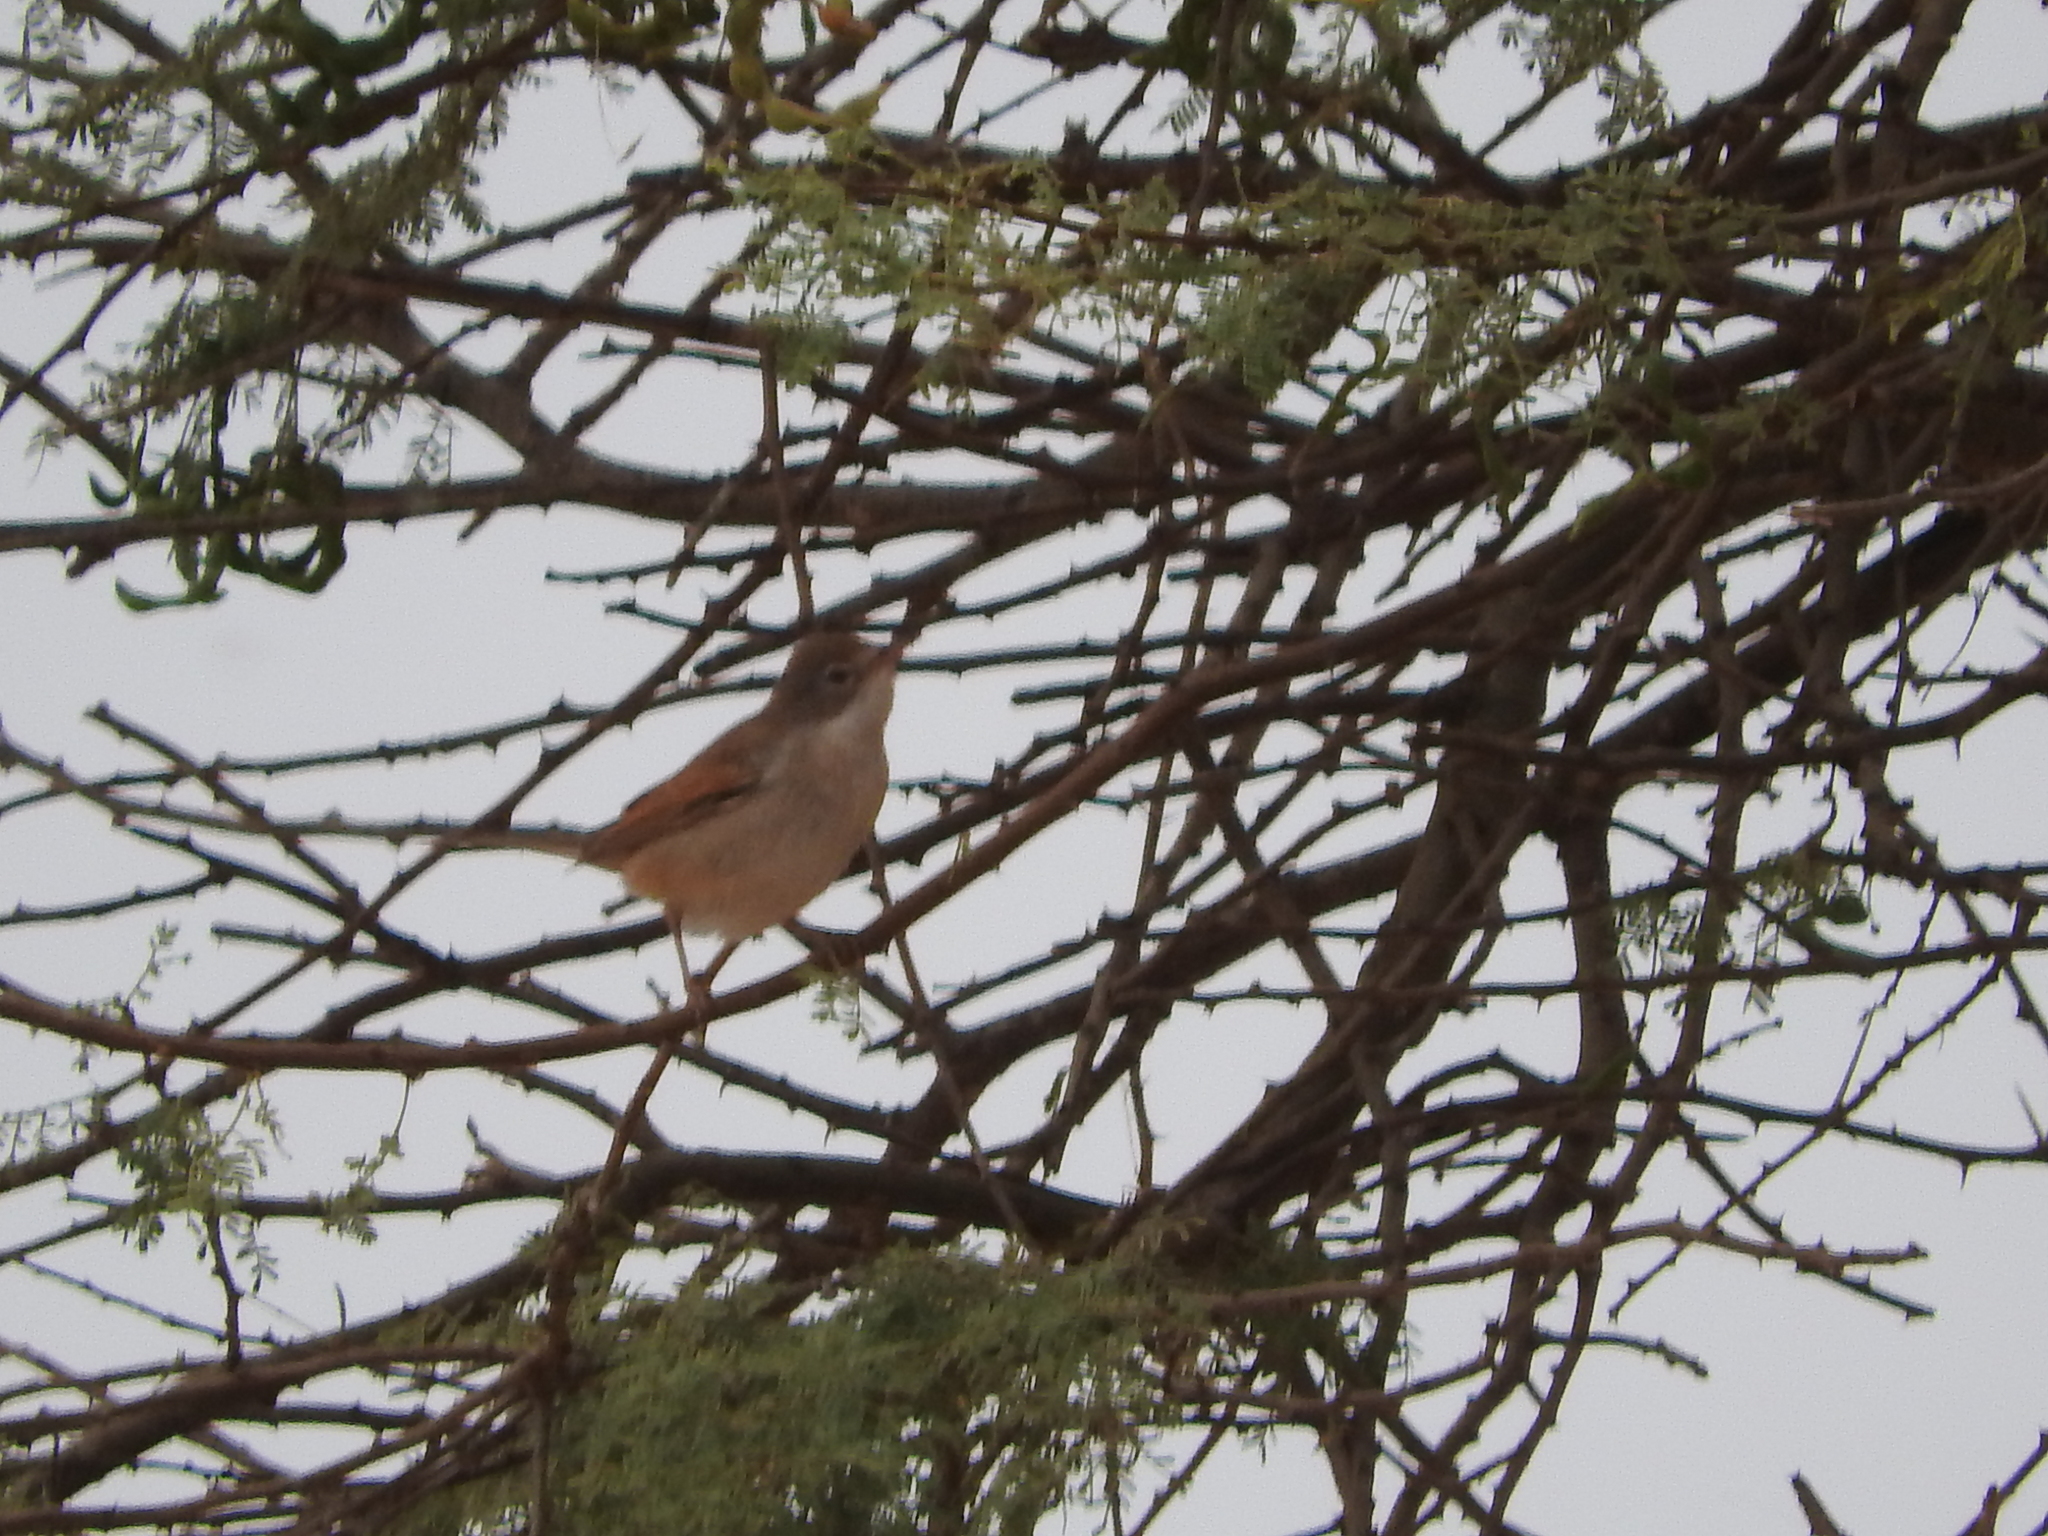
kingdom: Animalia
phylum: Chordata
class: Aves
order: Passeriformes
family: Sylviidae
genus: Sylvia
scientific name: Sylvia communis
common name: Common whitethroat
